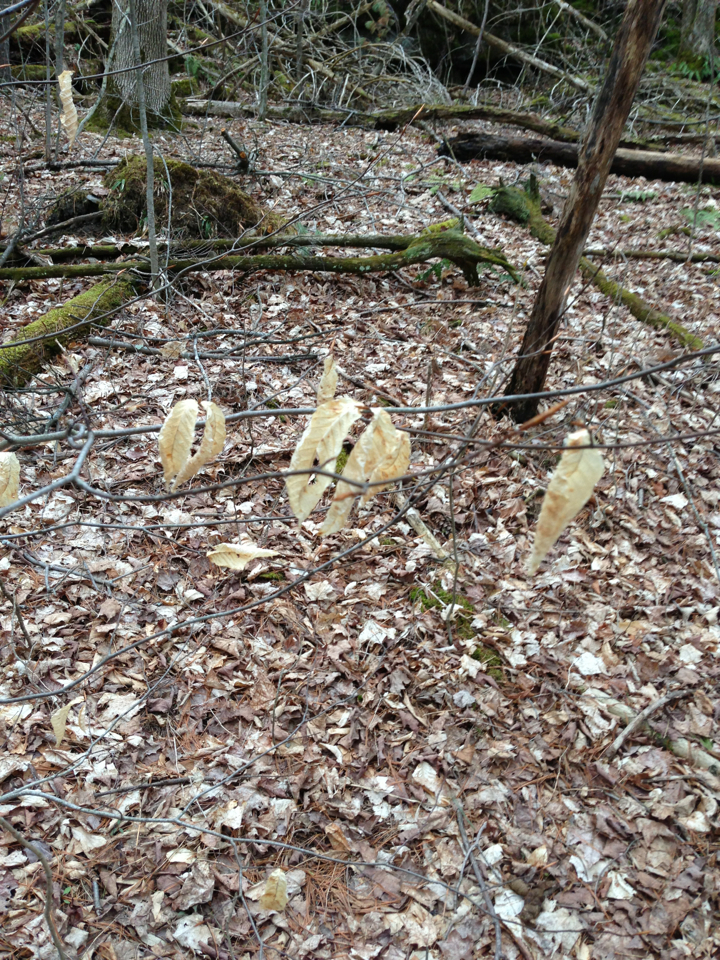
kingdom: Plantae
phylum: Tracheophyta
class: Magnoliopsida
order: Fagales
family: Fagaceae
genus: Fagus
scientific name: Fagus grandifolia
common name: American beech
